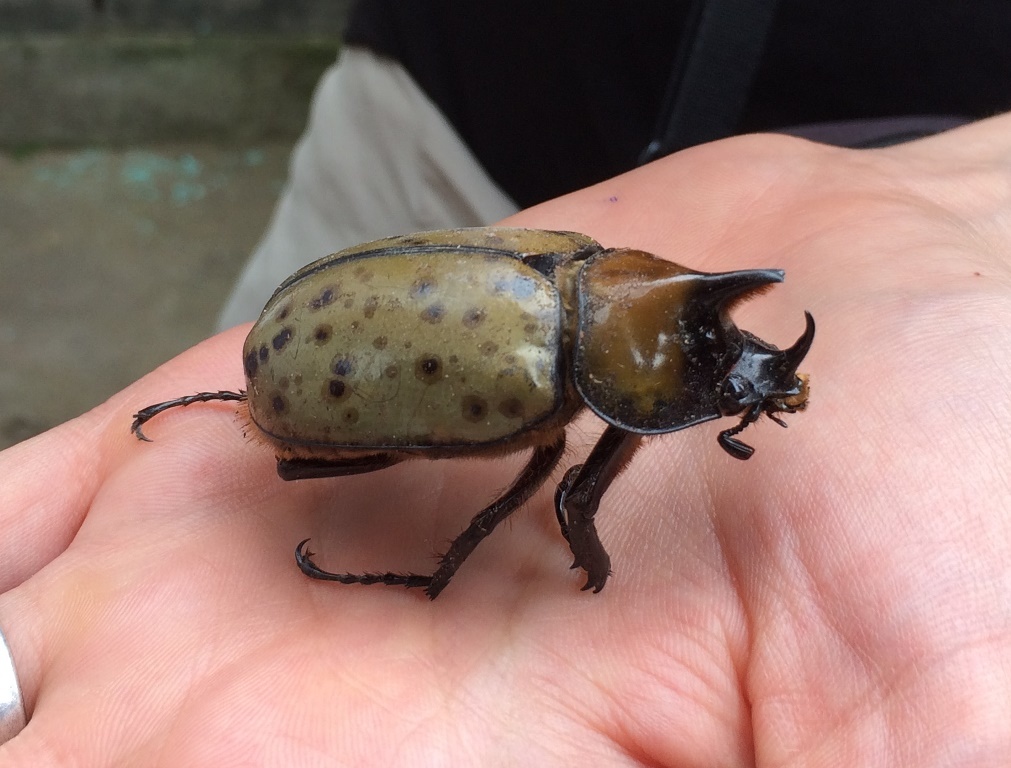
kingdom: Animalia
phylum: Arthropoda
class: Insecta
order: Coleoptera
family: Scarabaeidae
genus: Dynastes
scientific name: Dynastes maya
